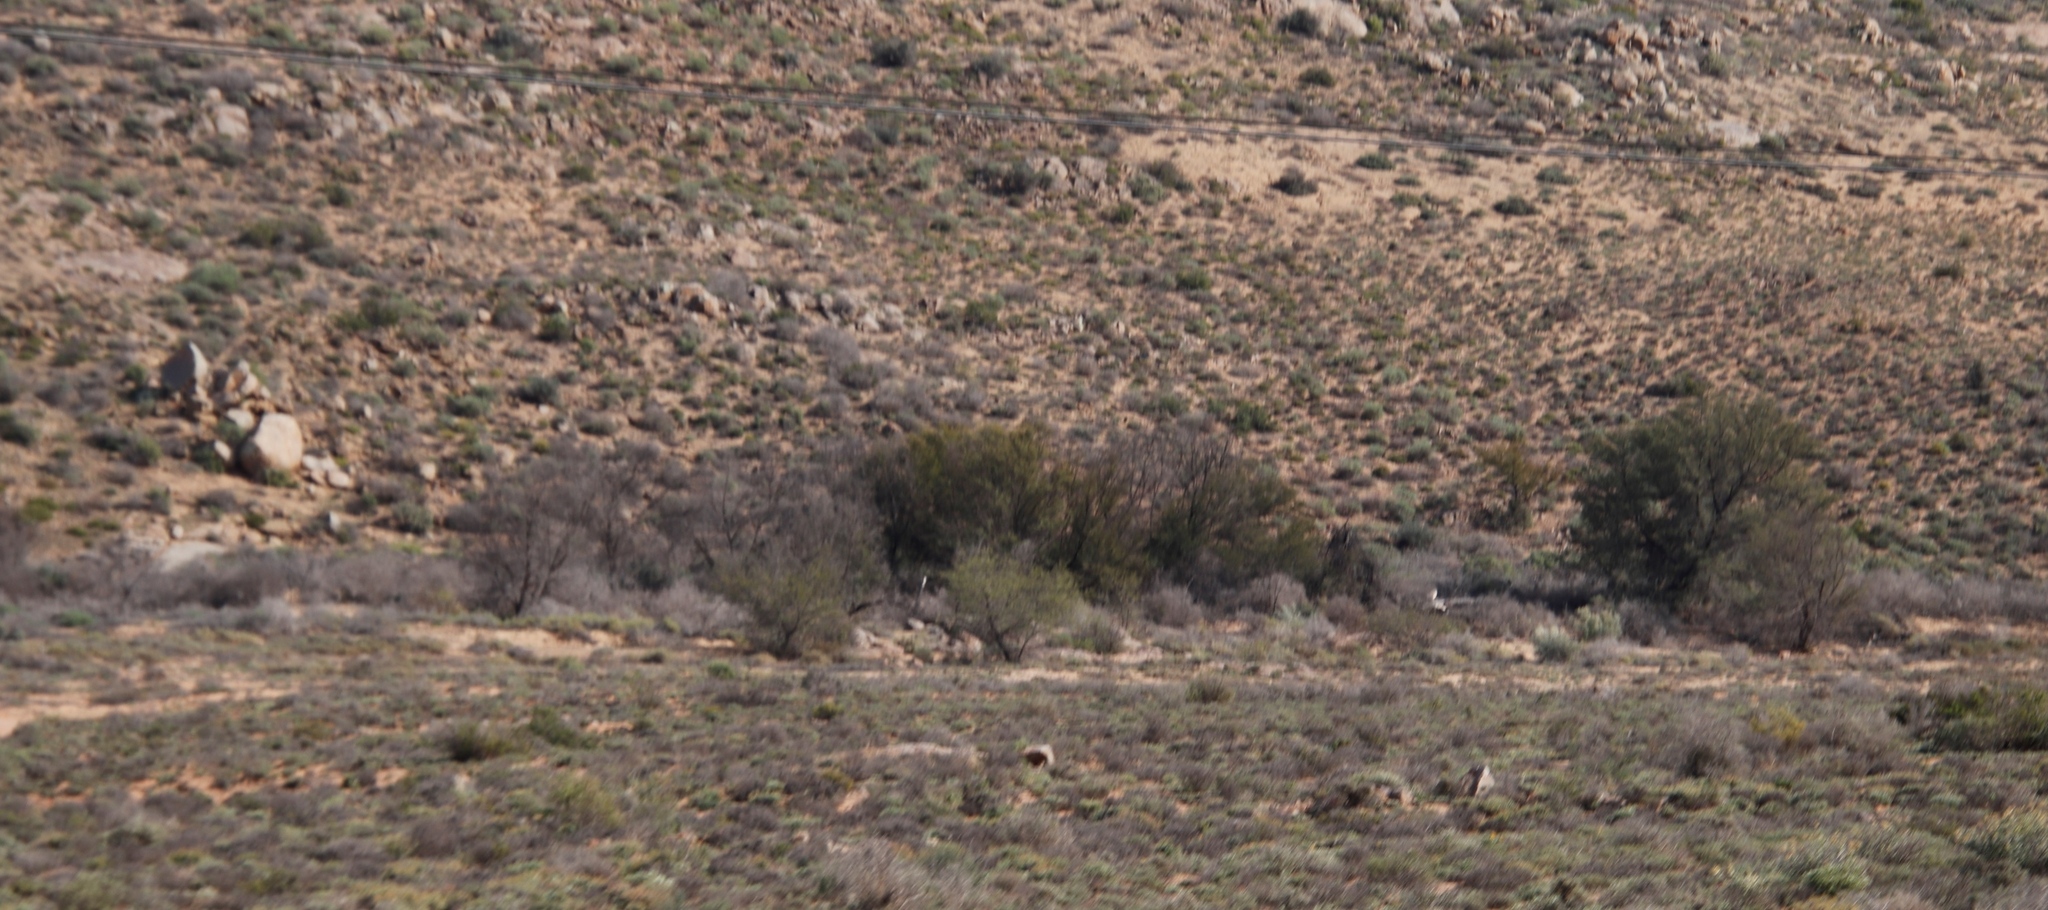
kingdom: Plantae
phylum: Tracheophyta
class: Magnoliopsida
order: Fabales
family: Fabaceae
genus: Vachellia
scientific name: Vachellia karroo
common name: Sweet thorn
